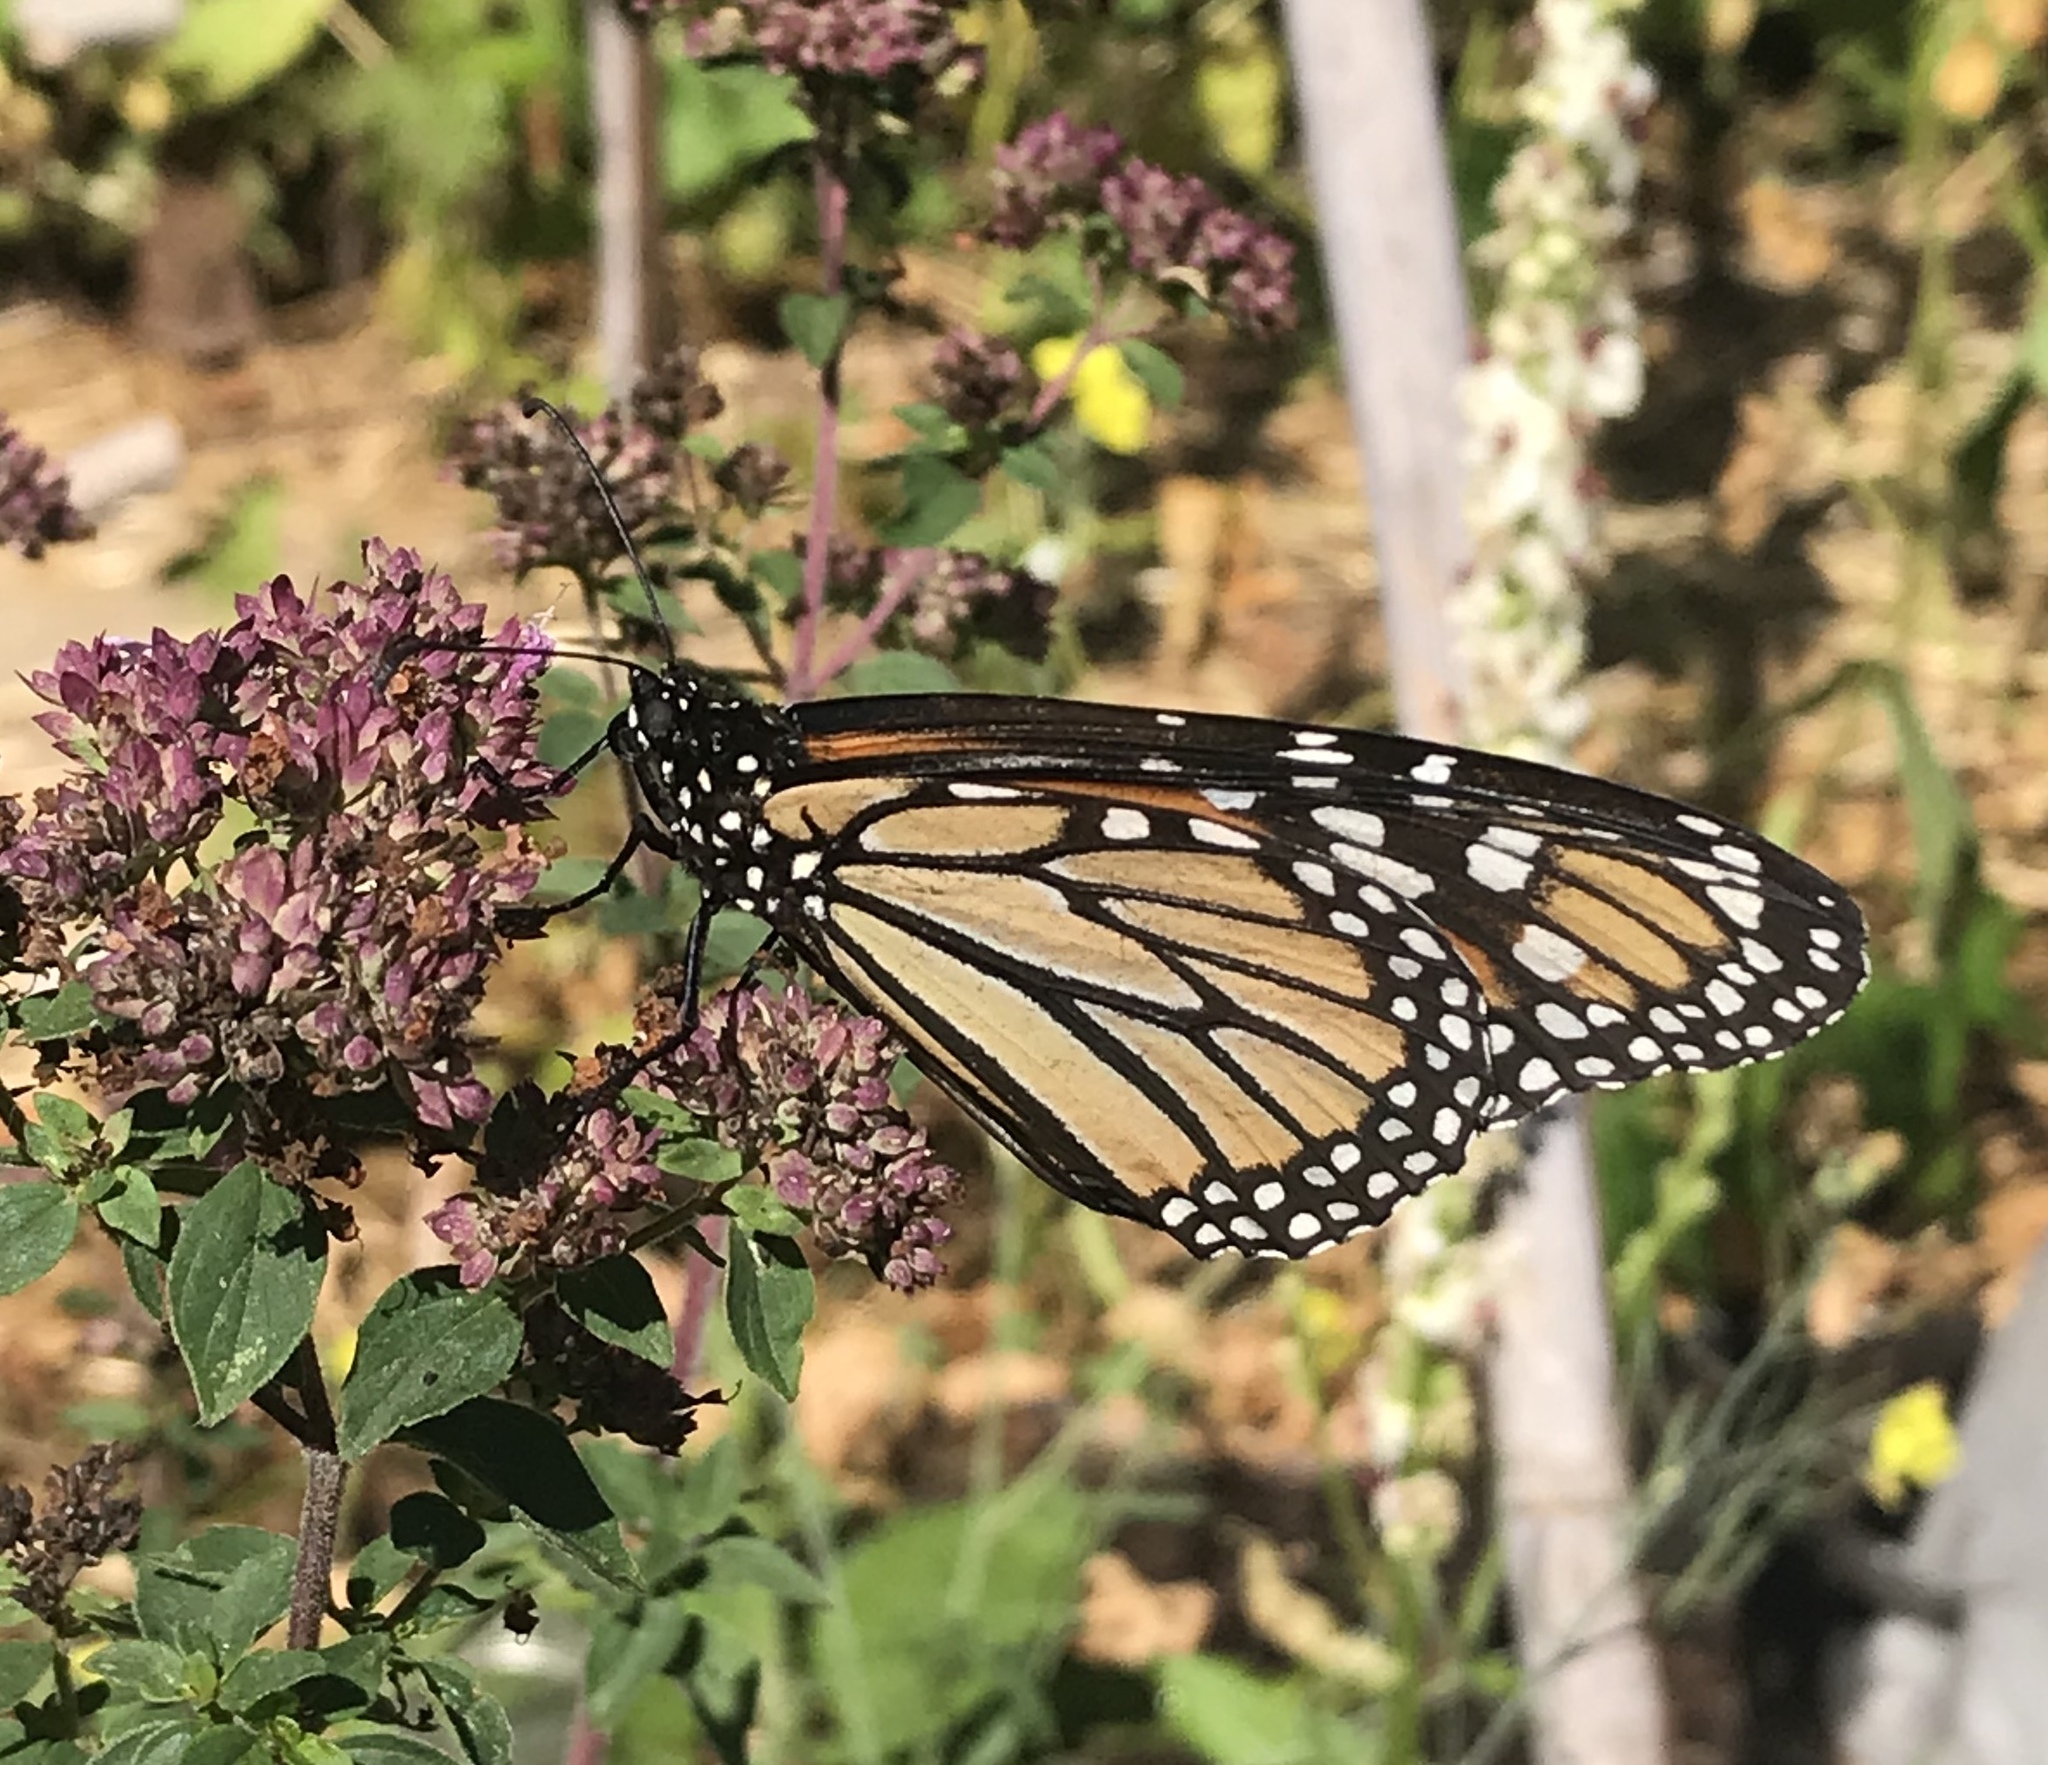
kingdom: Animalia
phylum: Arthropoda
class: Insecta
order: Lepidoptera
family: Nymphalidae
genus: Danaus
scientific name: Danaus plexippus
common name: Monarch
